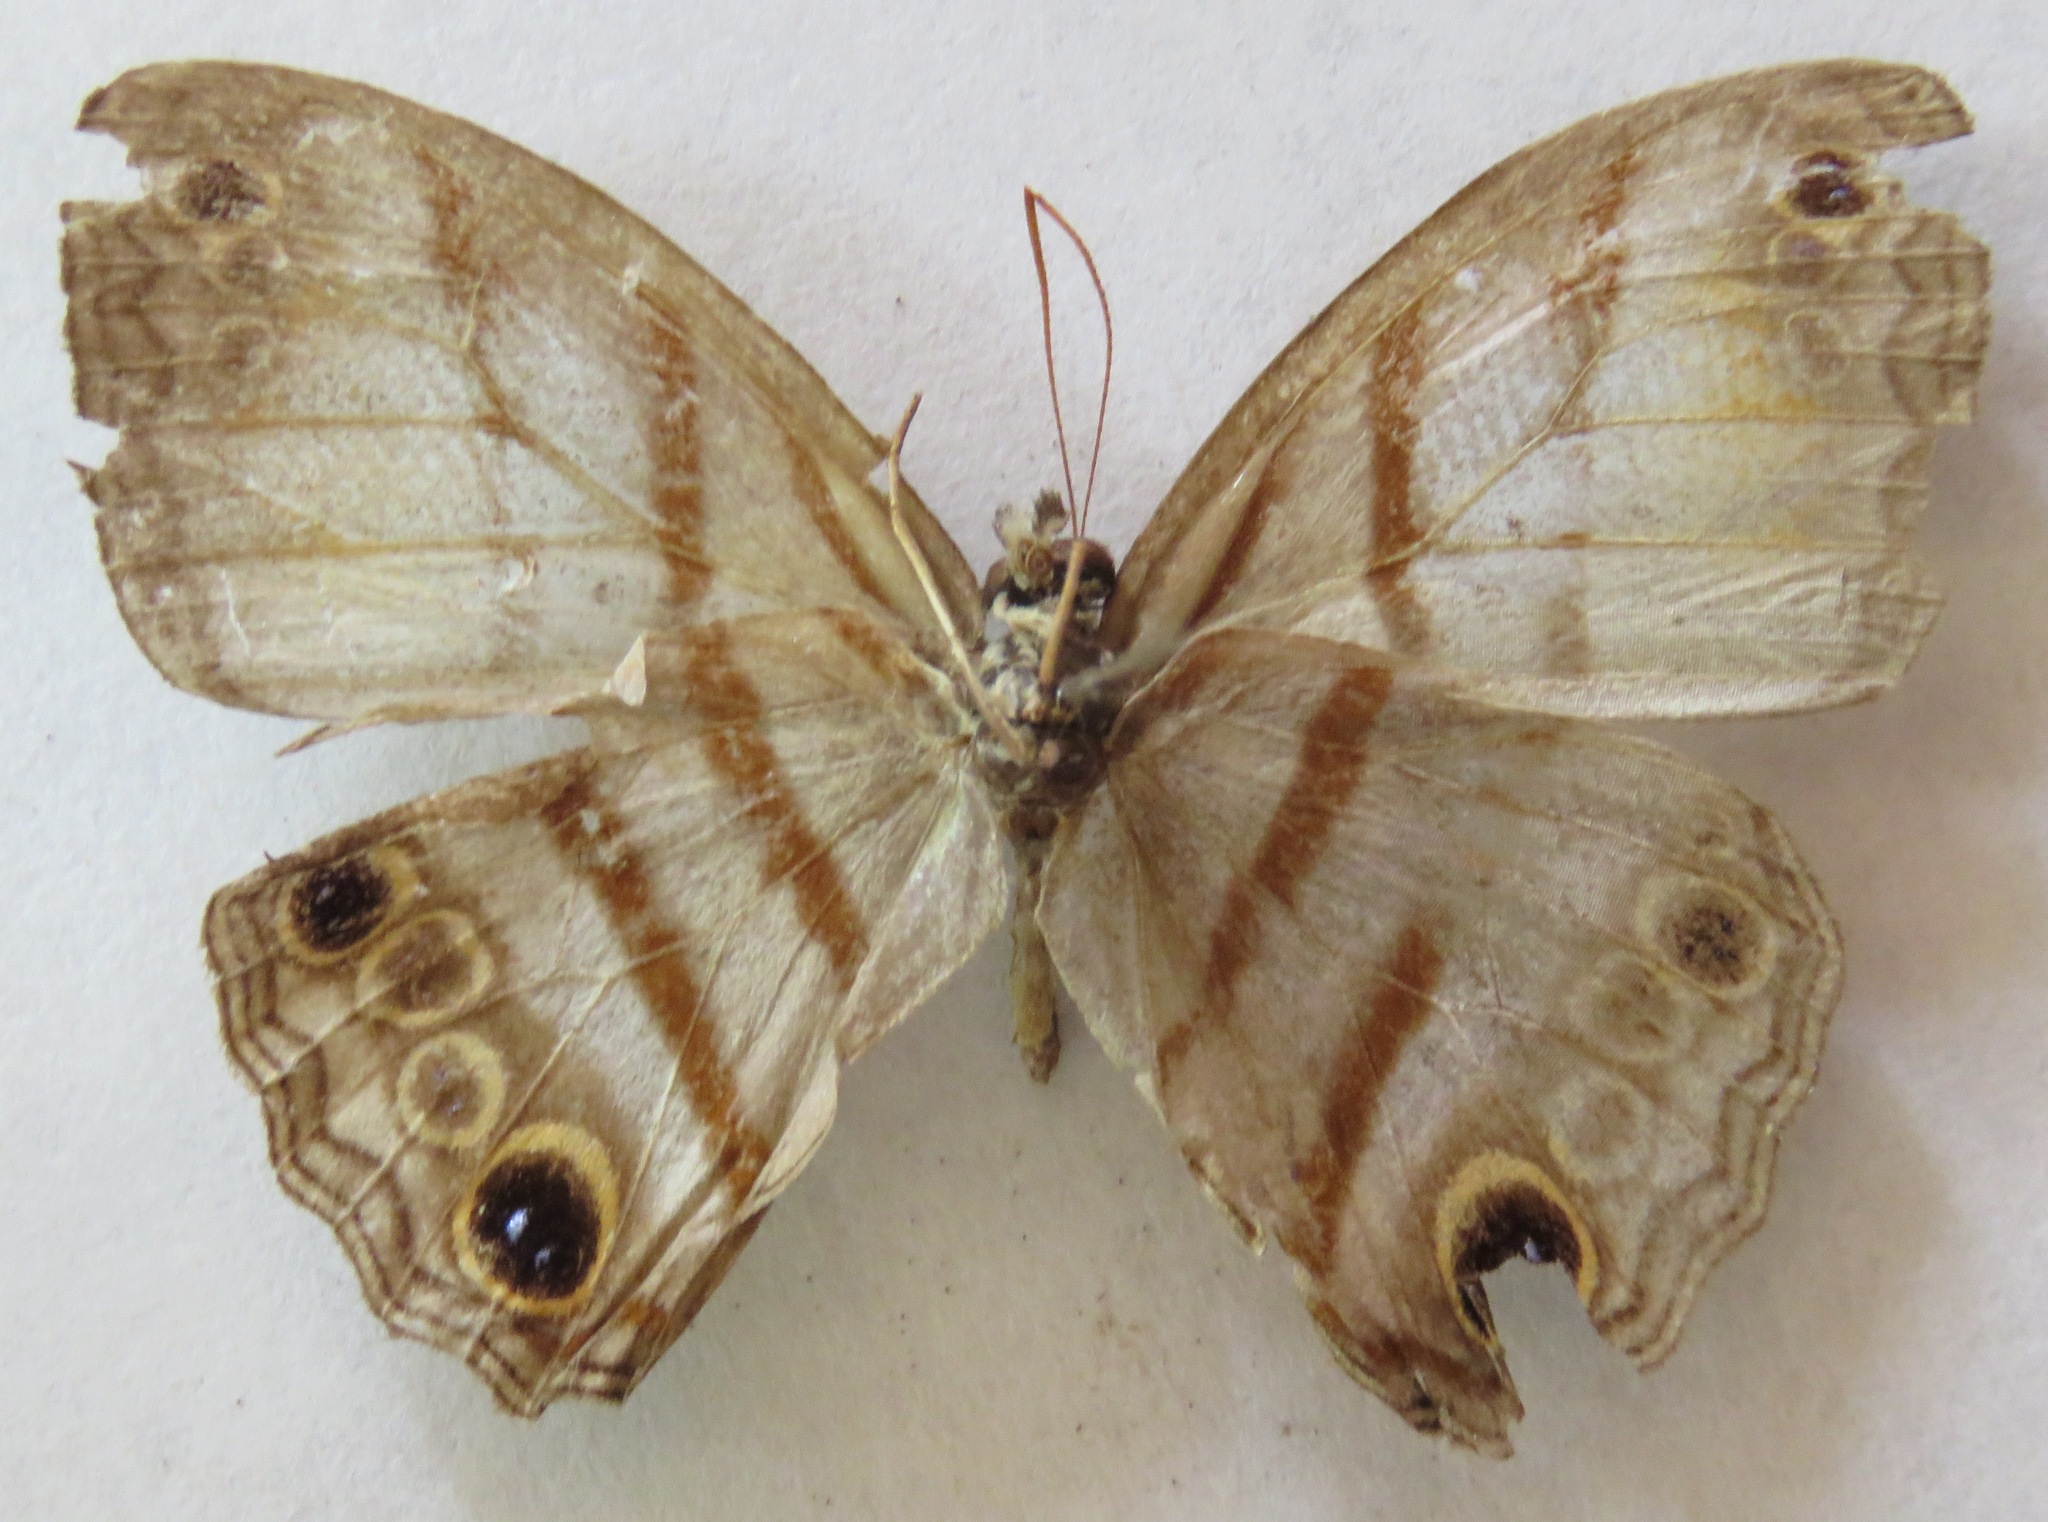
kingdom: Animalia
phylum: Arthropoda
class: Insecta
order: Lepidoptera
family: Nymphalidae
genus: Modica
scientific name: Modica
